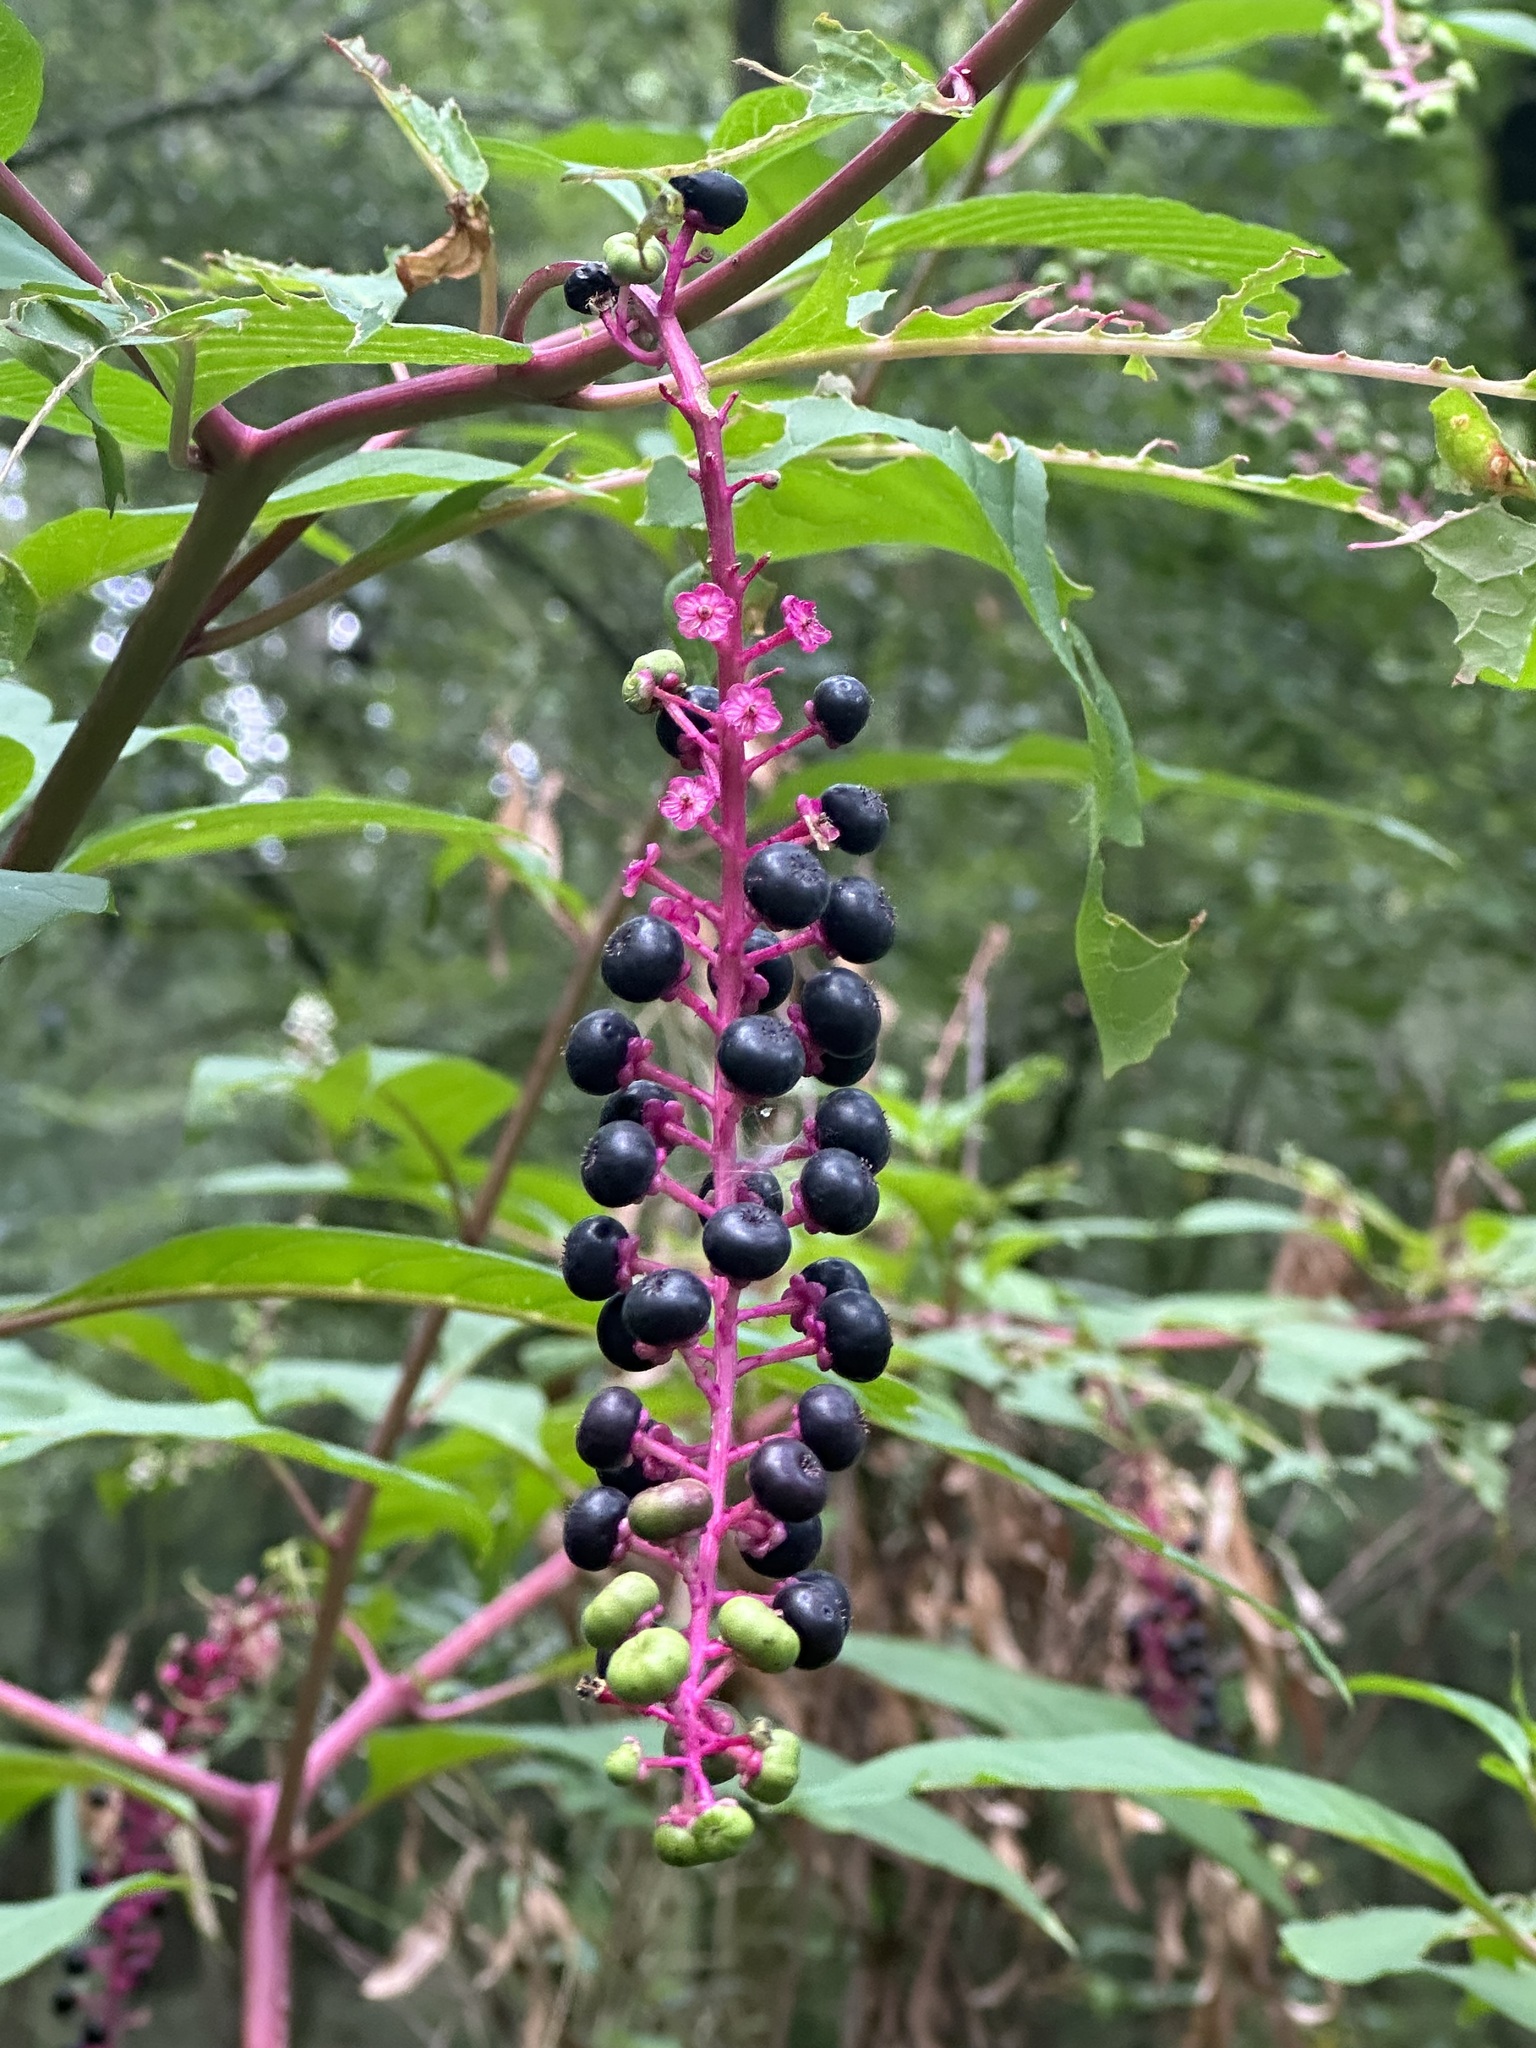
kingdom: Plantae
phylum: Tracheophyta
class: Magnoliopsida
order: Caryophyllales
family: Phytolaccaceae
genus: Phytolacca
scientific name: Phytolacca americana
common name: American pokeweed
